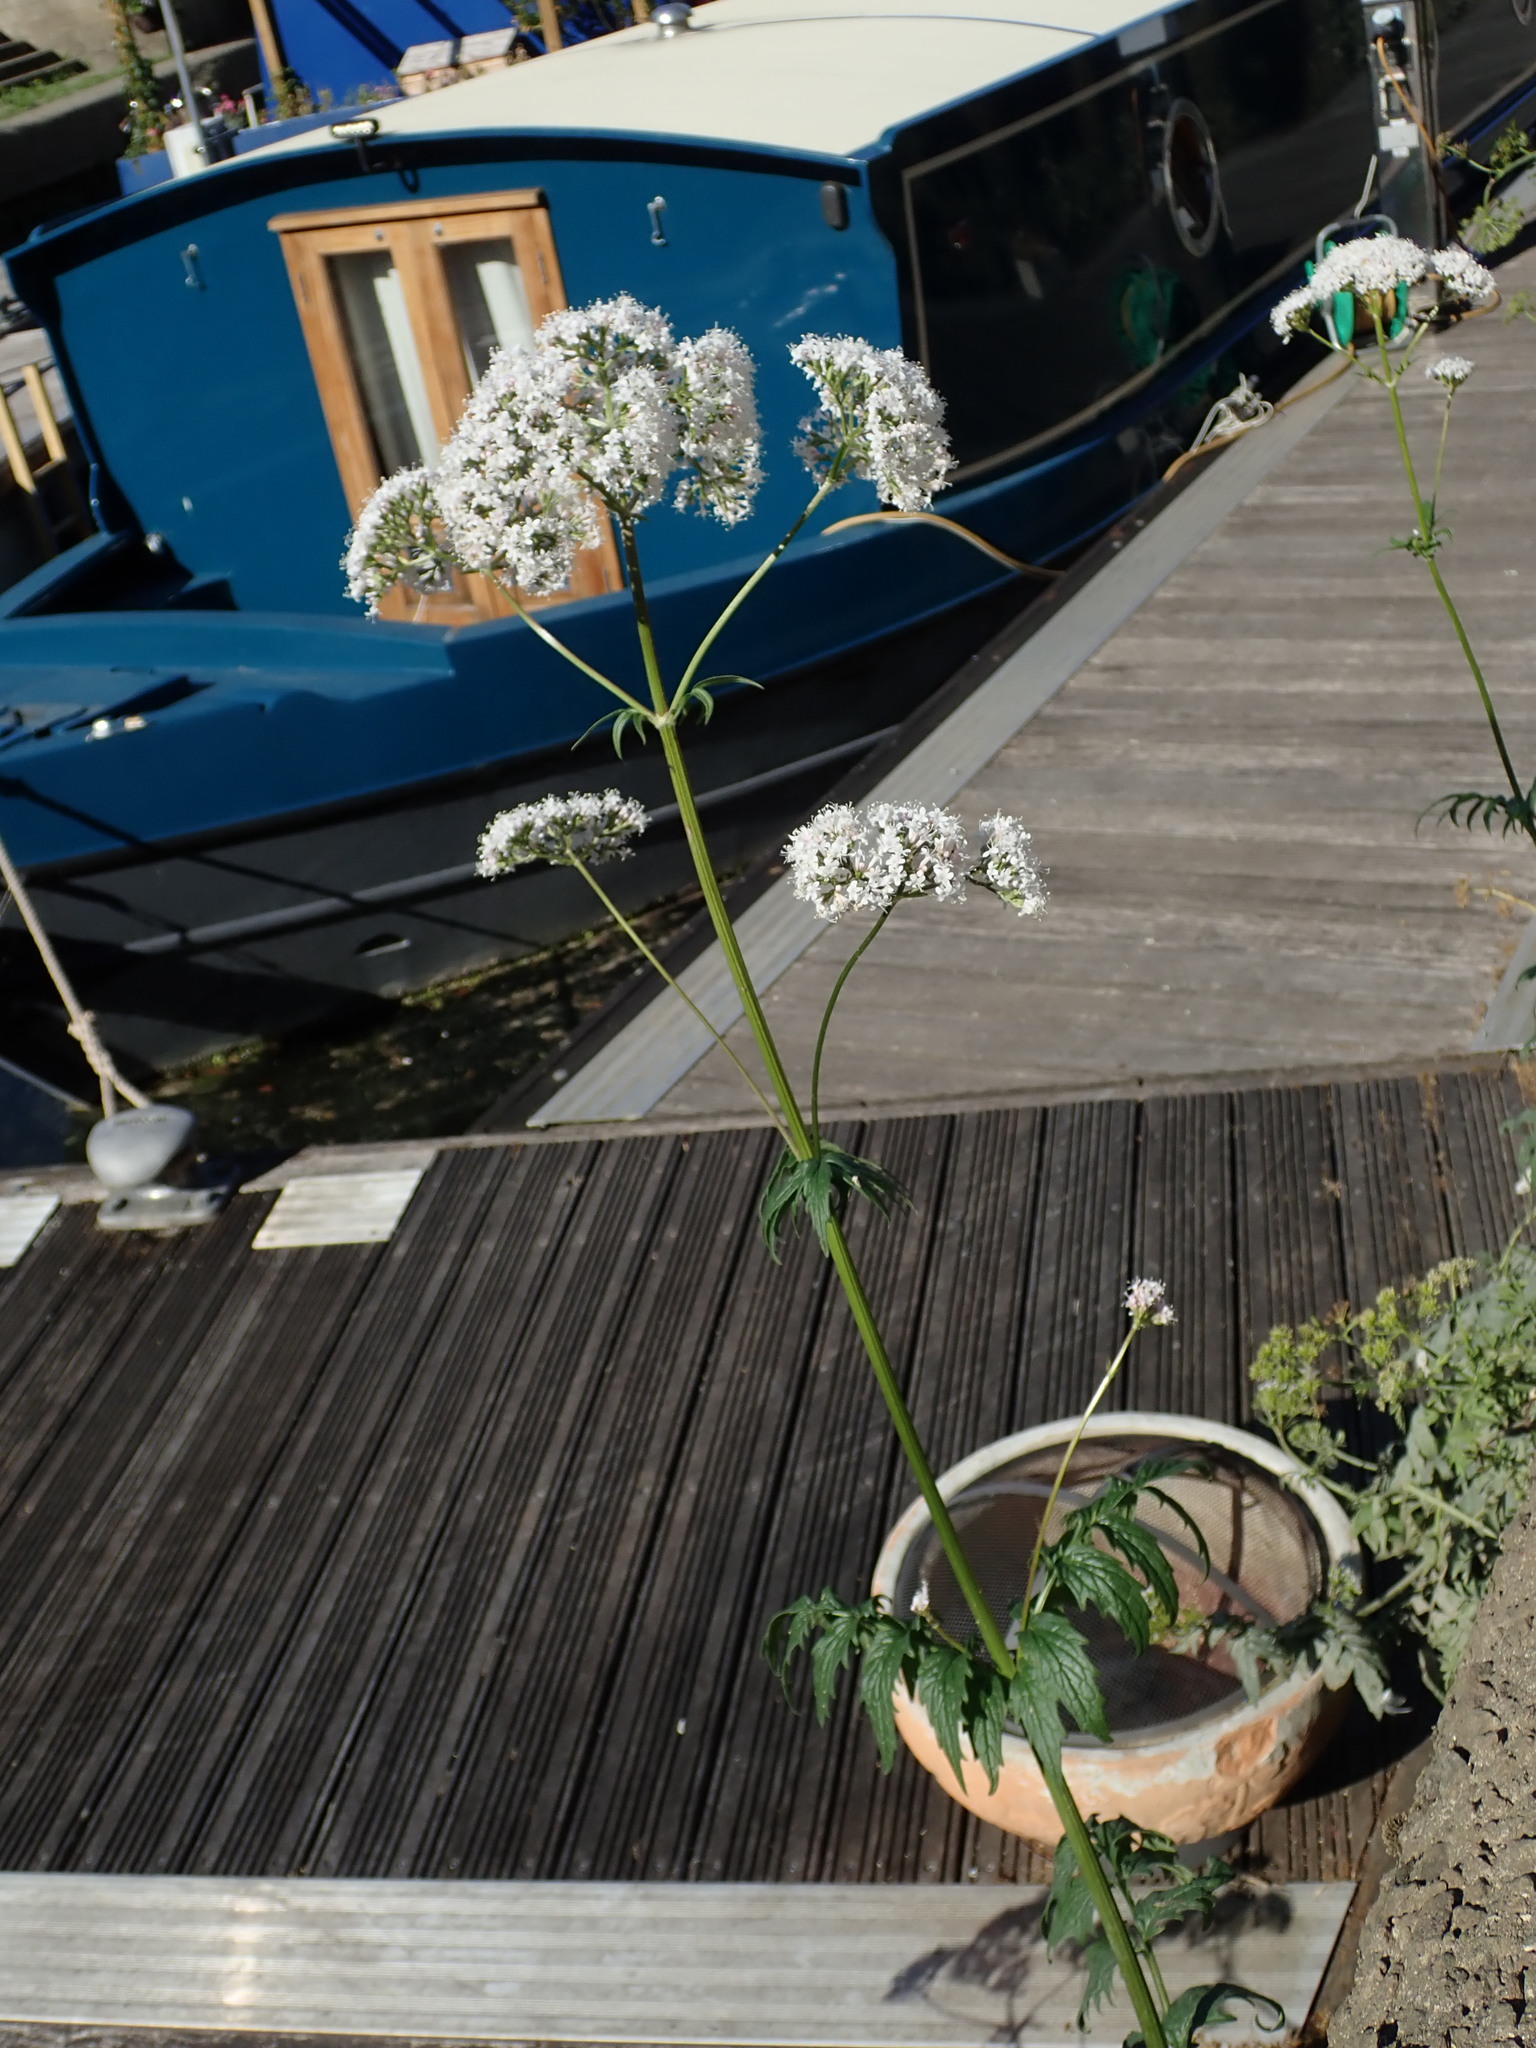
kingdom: Plantae
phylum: Tracheophyta
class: Magnoliopsida
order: Dipsacales
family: Caprifoliaceae
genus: Valeriana
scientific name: Valeriana officinalis
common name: Common valerian
